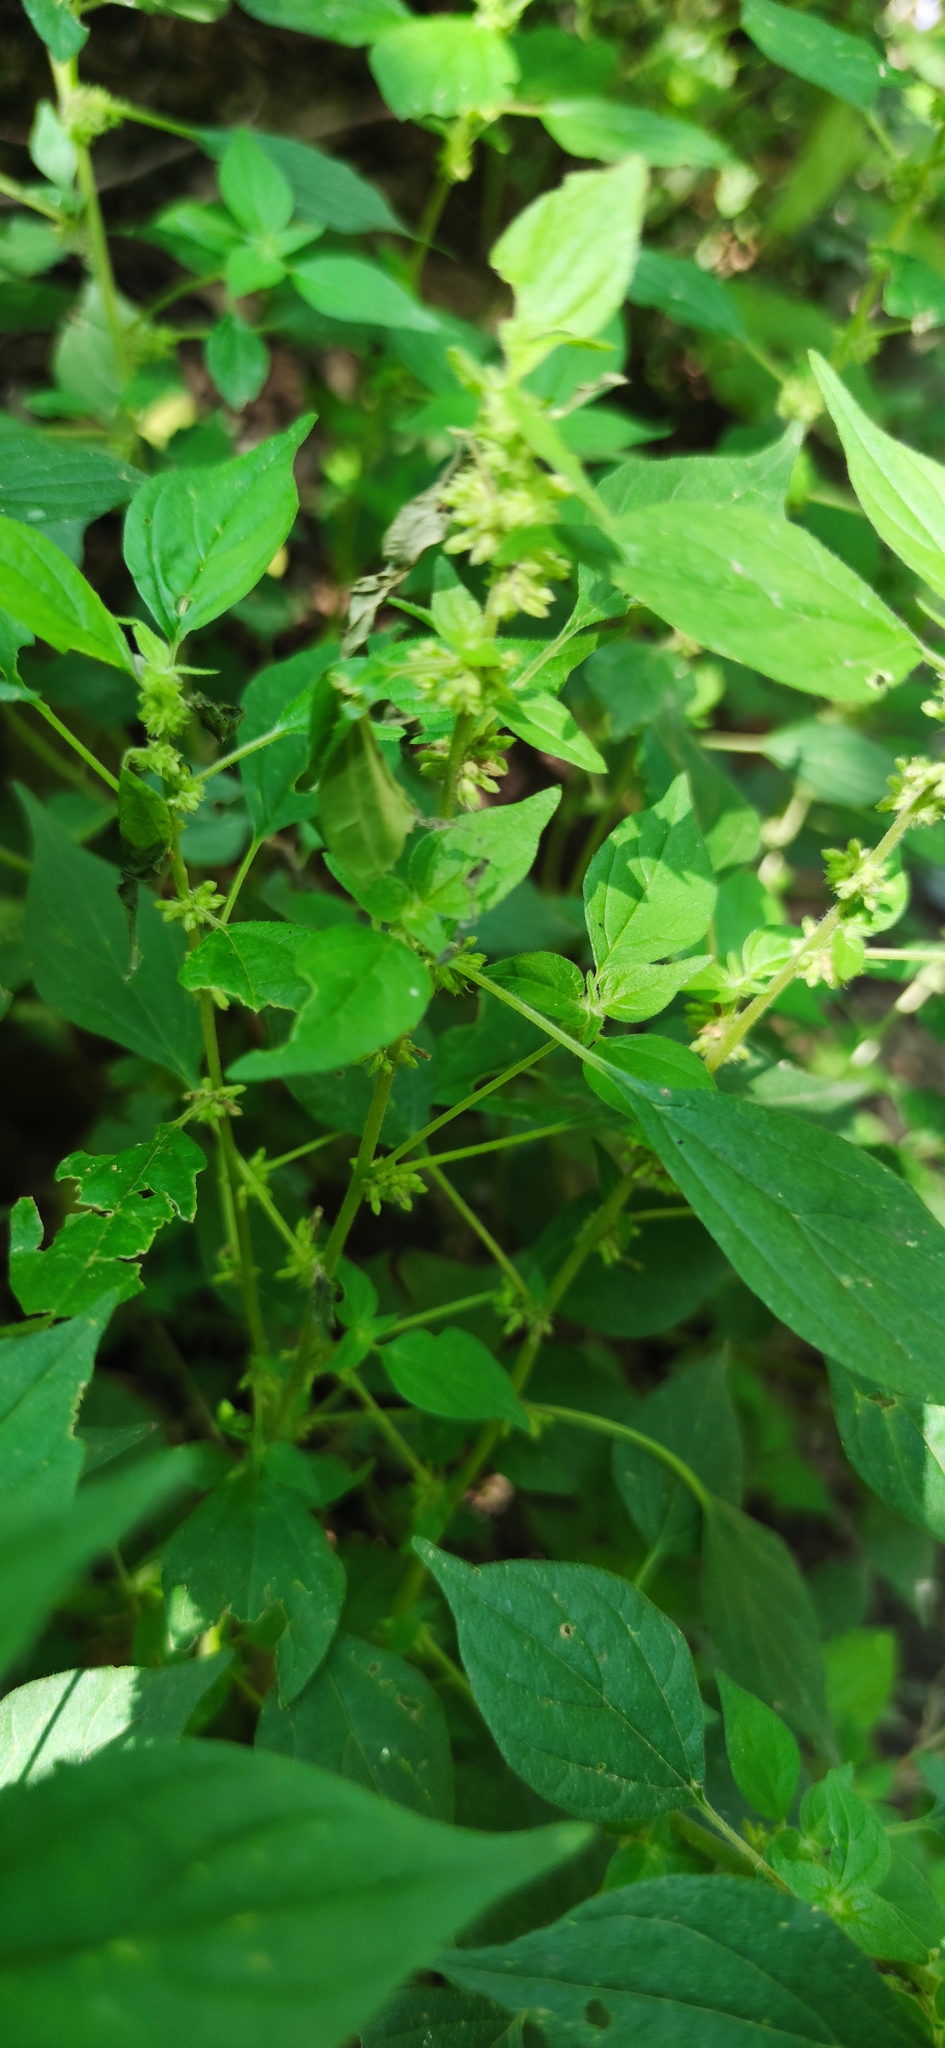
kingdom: Plantae
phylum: Tracheophyta
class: Magnoliopsida
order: Rosales
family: Urticaceae
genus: Parietaria
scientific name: Parietaria officinalis
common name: Eastern pellitory-of-the-wall
